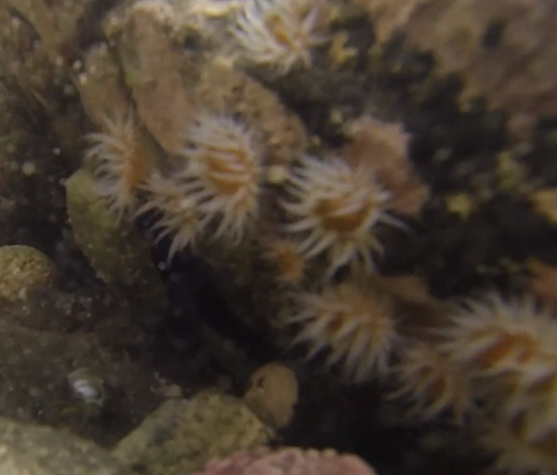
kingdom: Animalia
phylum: Cnidaria
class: Anthozoa
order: Actiniaria
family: Sagartiidae
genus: Anthothoe
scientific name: Anthothoe albocincta
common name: Orange striped anemone
